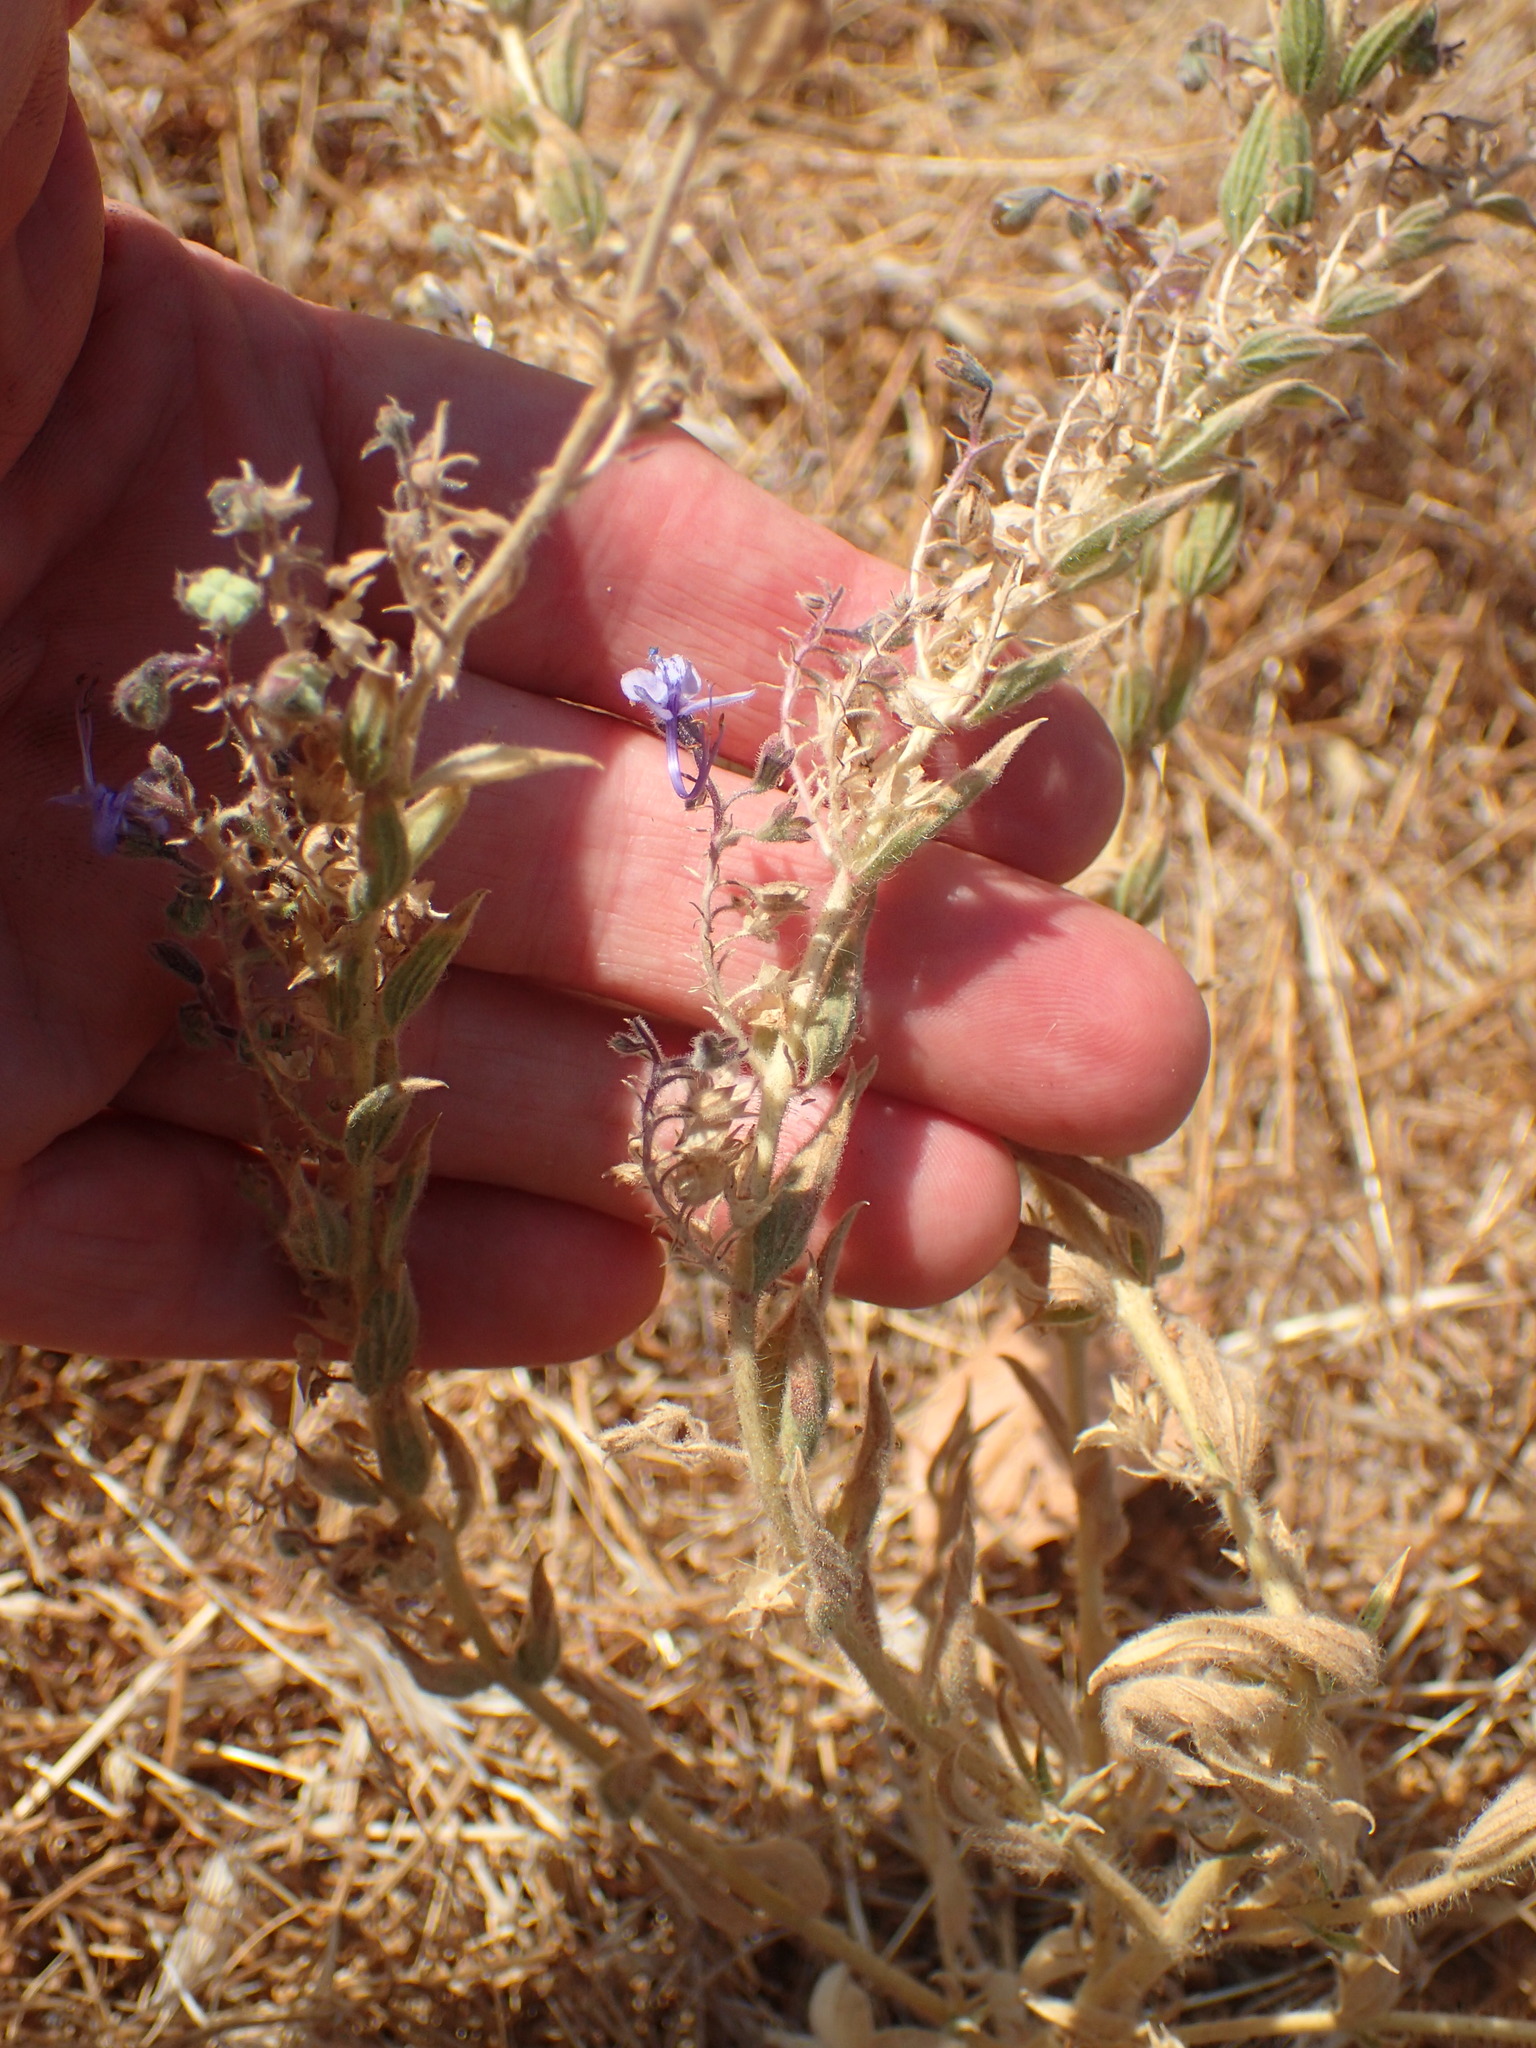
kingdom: Plantae
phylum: Tracheophyta
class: Magnoliopsida
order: Lamiales
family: Lamiaceae
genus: Trichostema
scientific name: Trichostema lanceolatum
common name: Vinegar-weed
